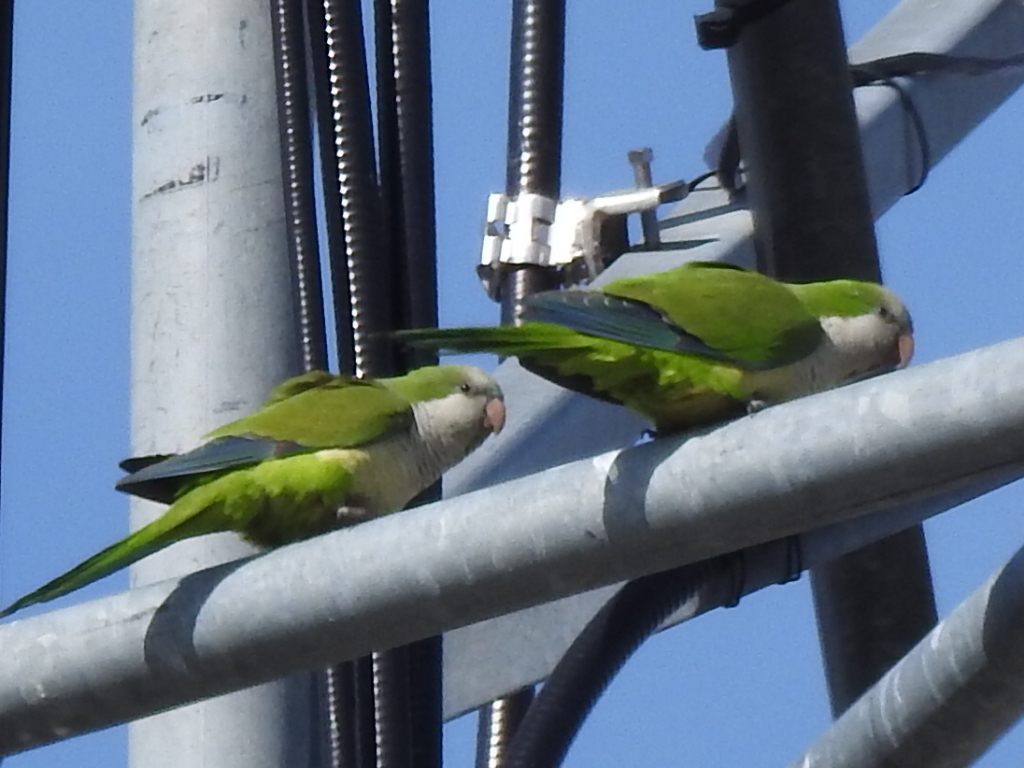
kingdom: Animalia
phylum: Chordata
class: Aves
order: Psittaciformes
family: Psittacidae
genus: Myiopsitta
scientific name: Myiopsitta monachus
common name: Monk parakeet
